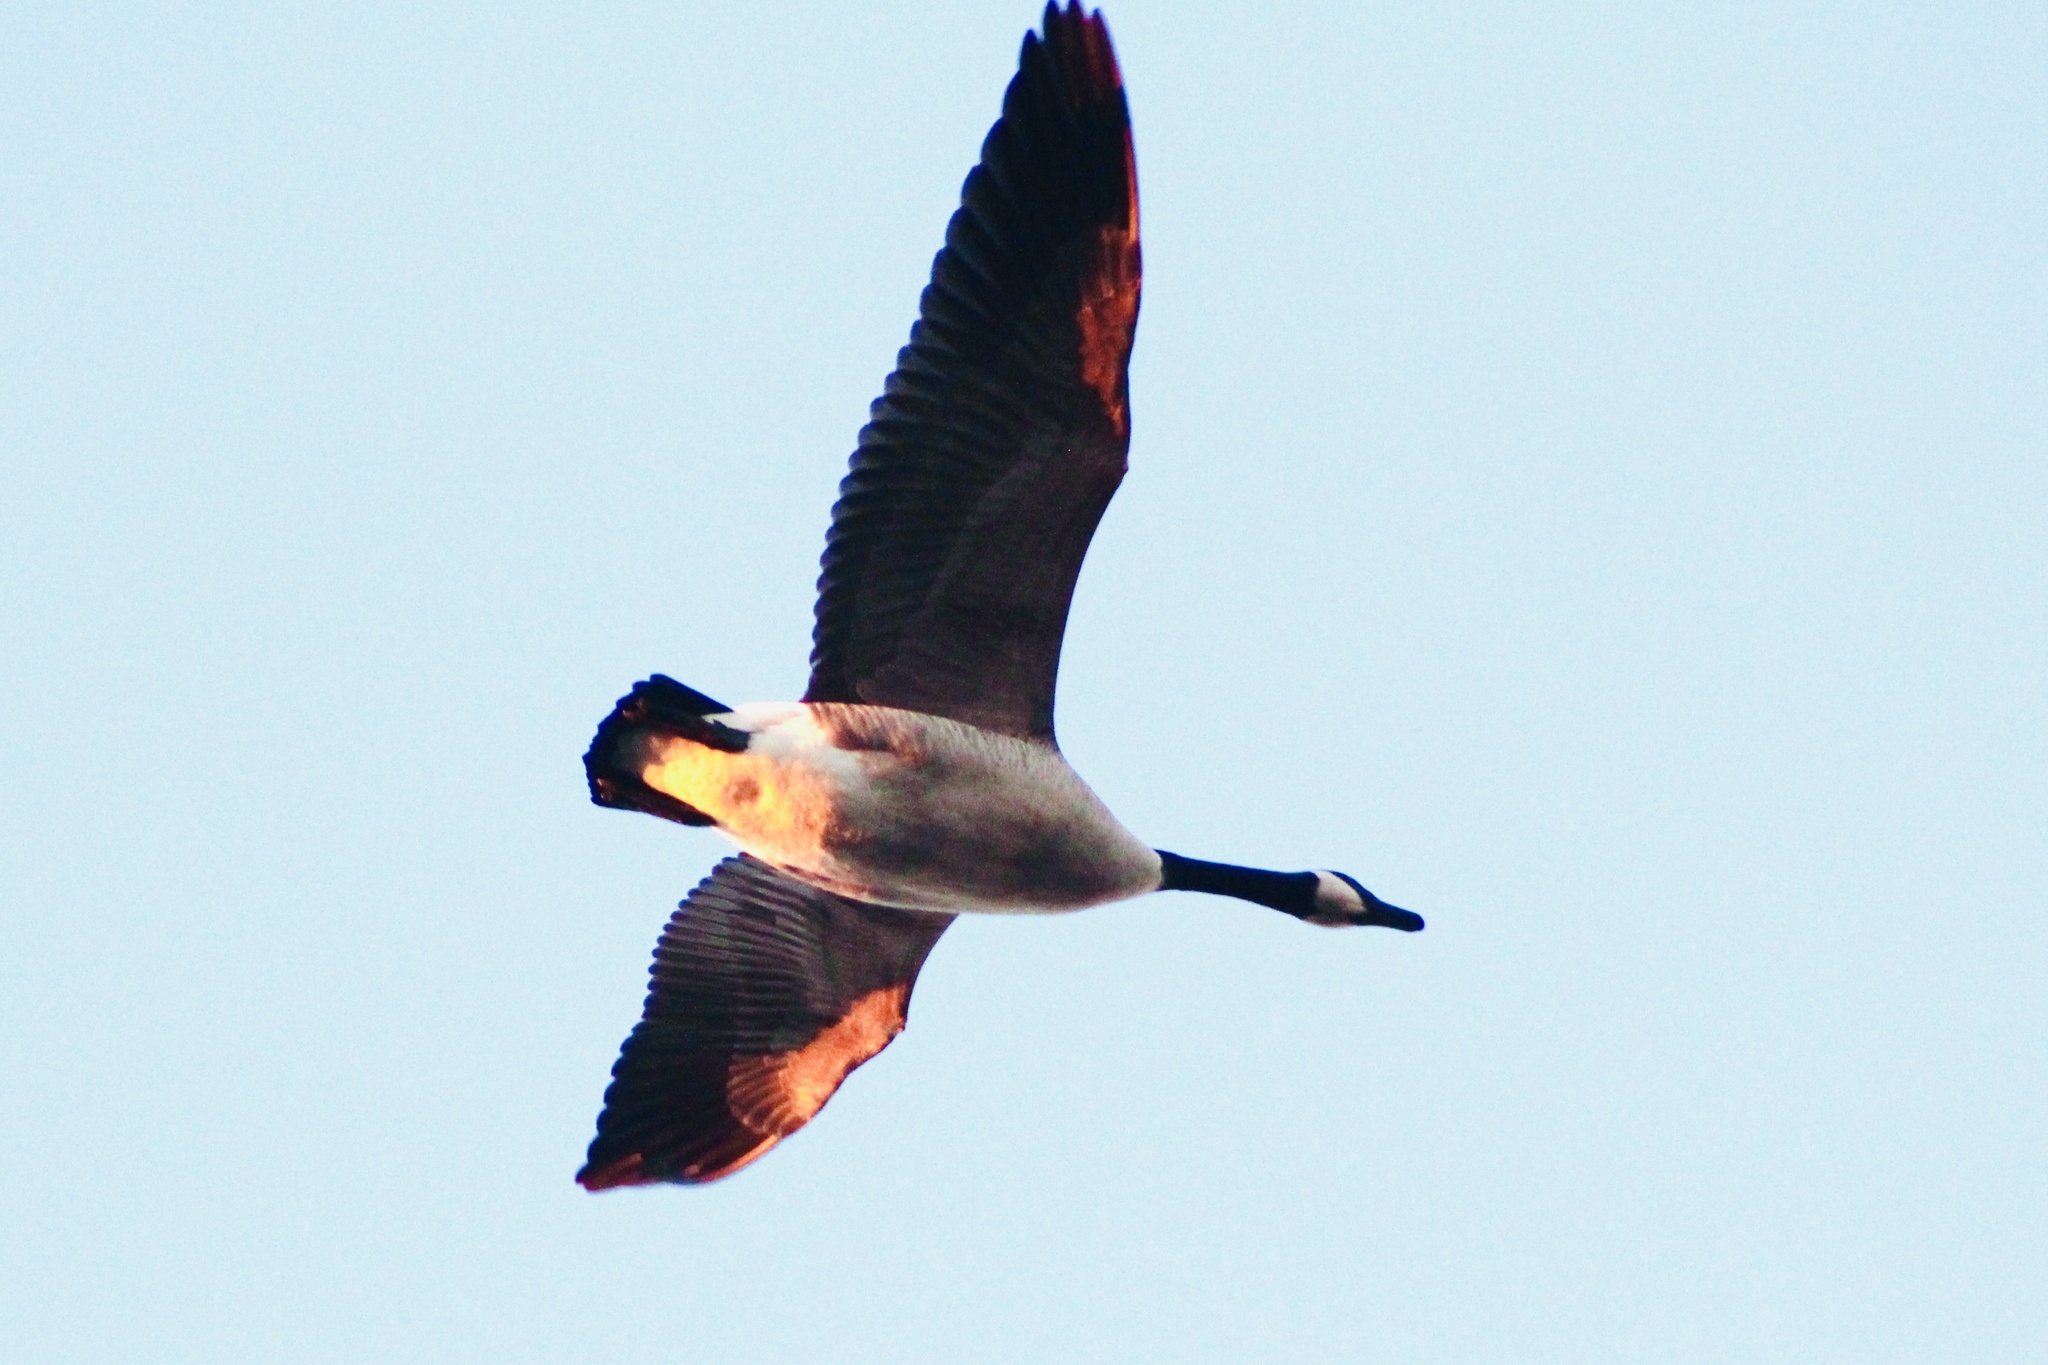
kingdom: Animalia
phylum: Chordata
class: Aves
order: Anseriformes
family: Anatidae
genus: Branta
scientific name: Branta canadensis
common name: Canada goose
